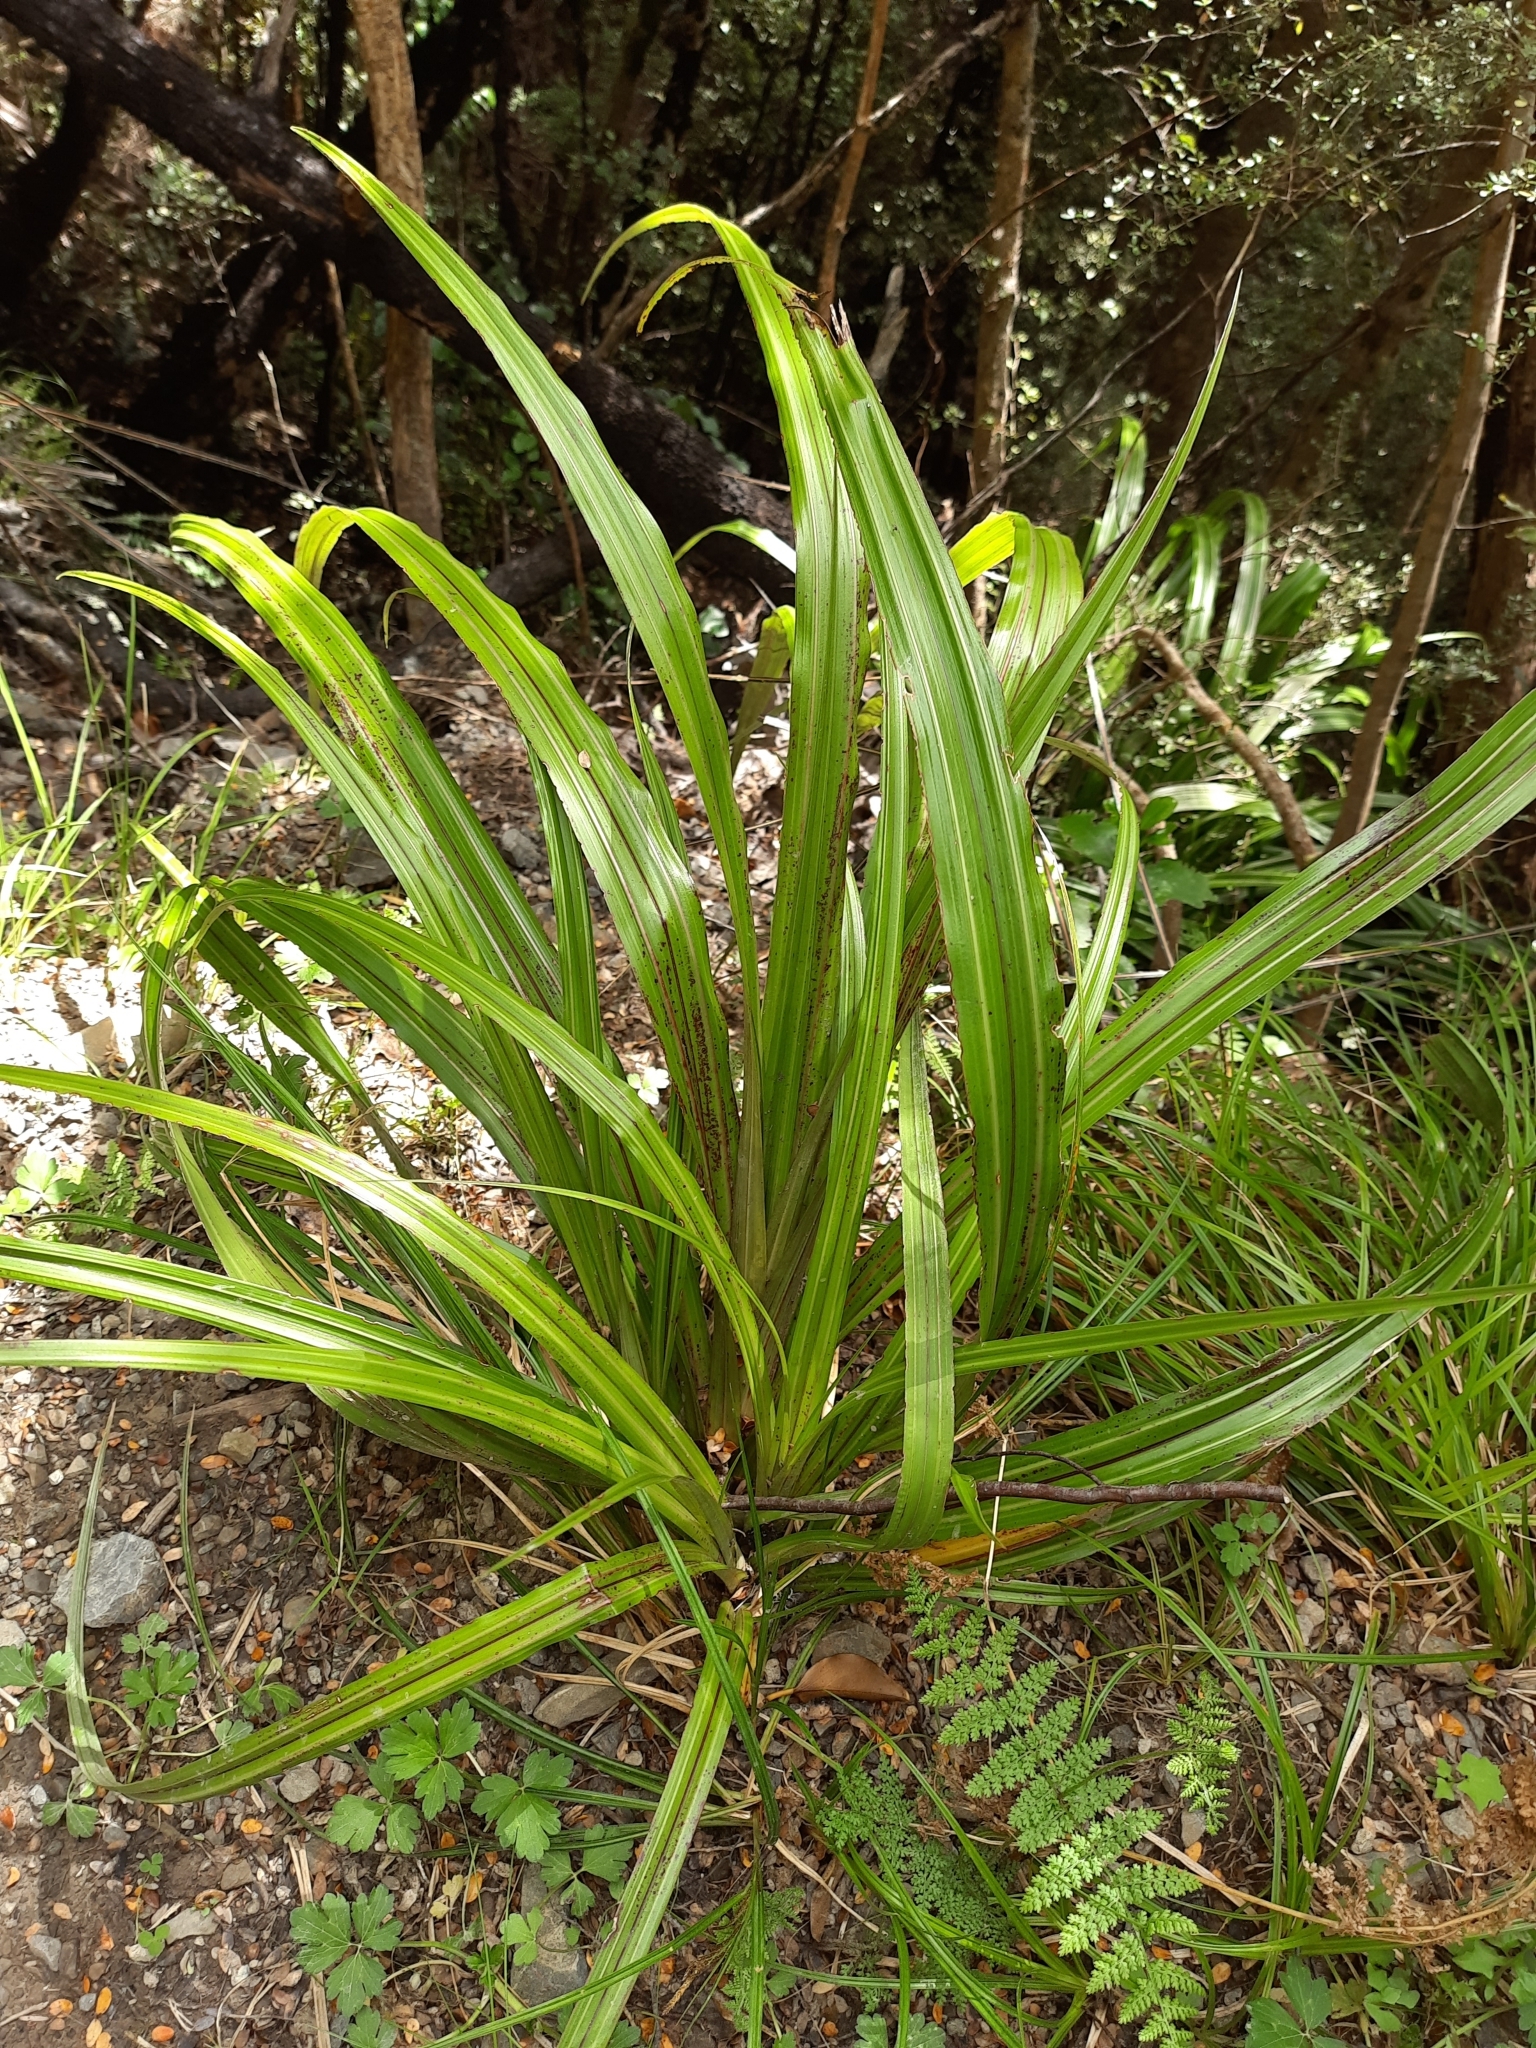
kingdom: Plantae
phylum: Tracheophyta
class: Liliopsida
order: Asparagales
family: Asteliaceae
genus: Astelia
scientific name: Astelia fragrans
